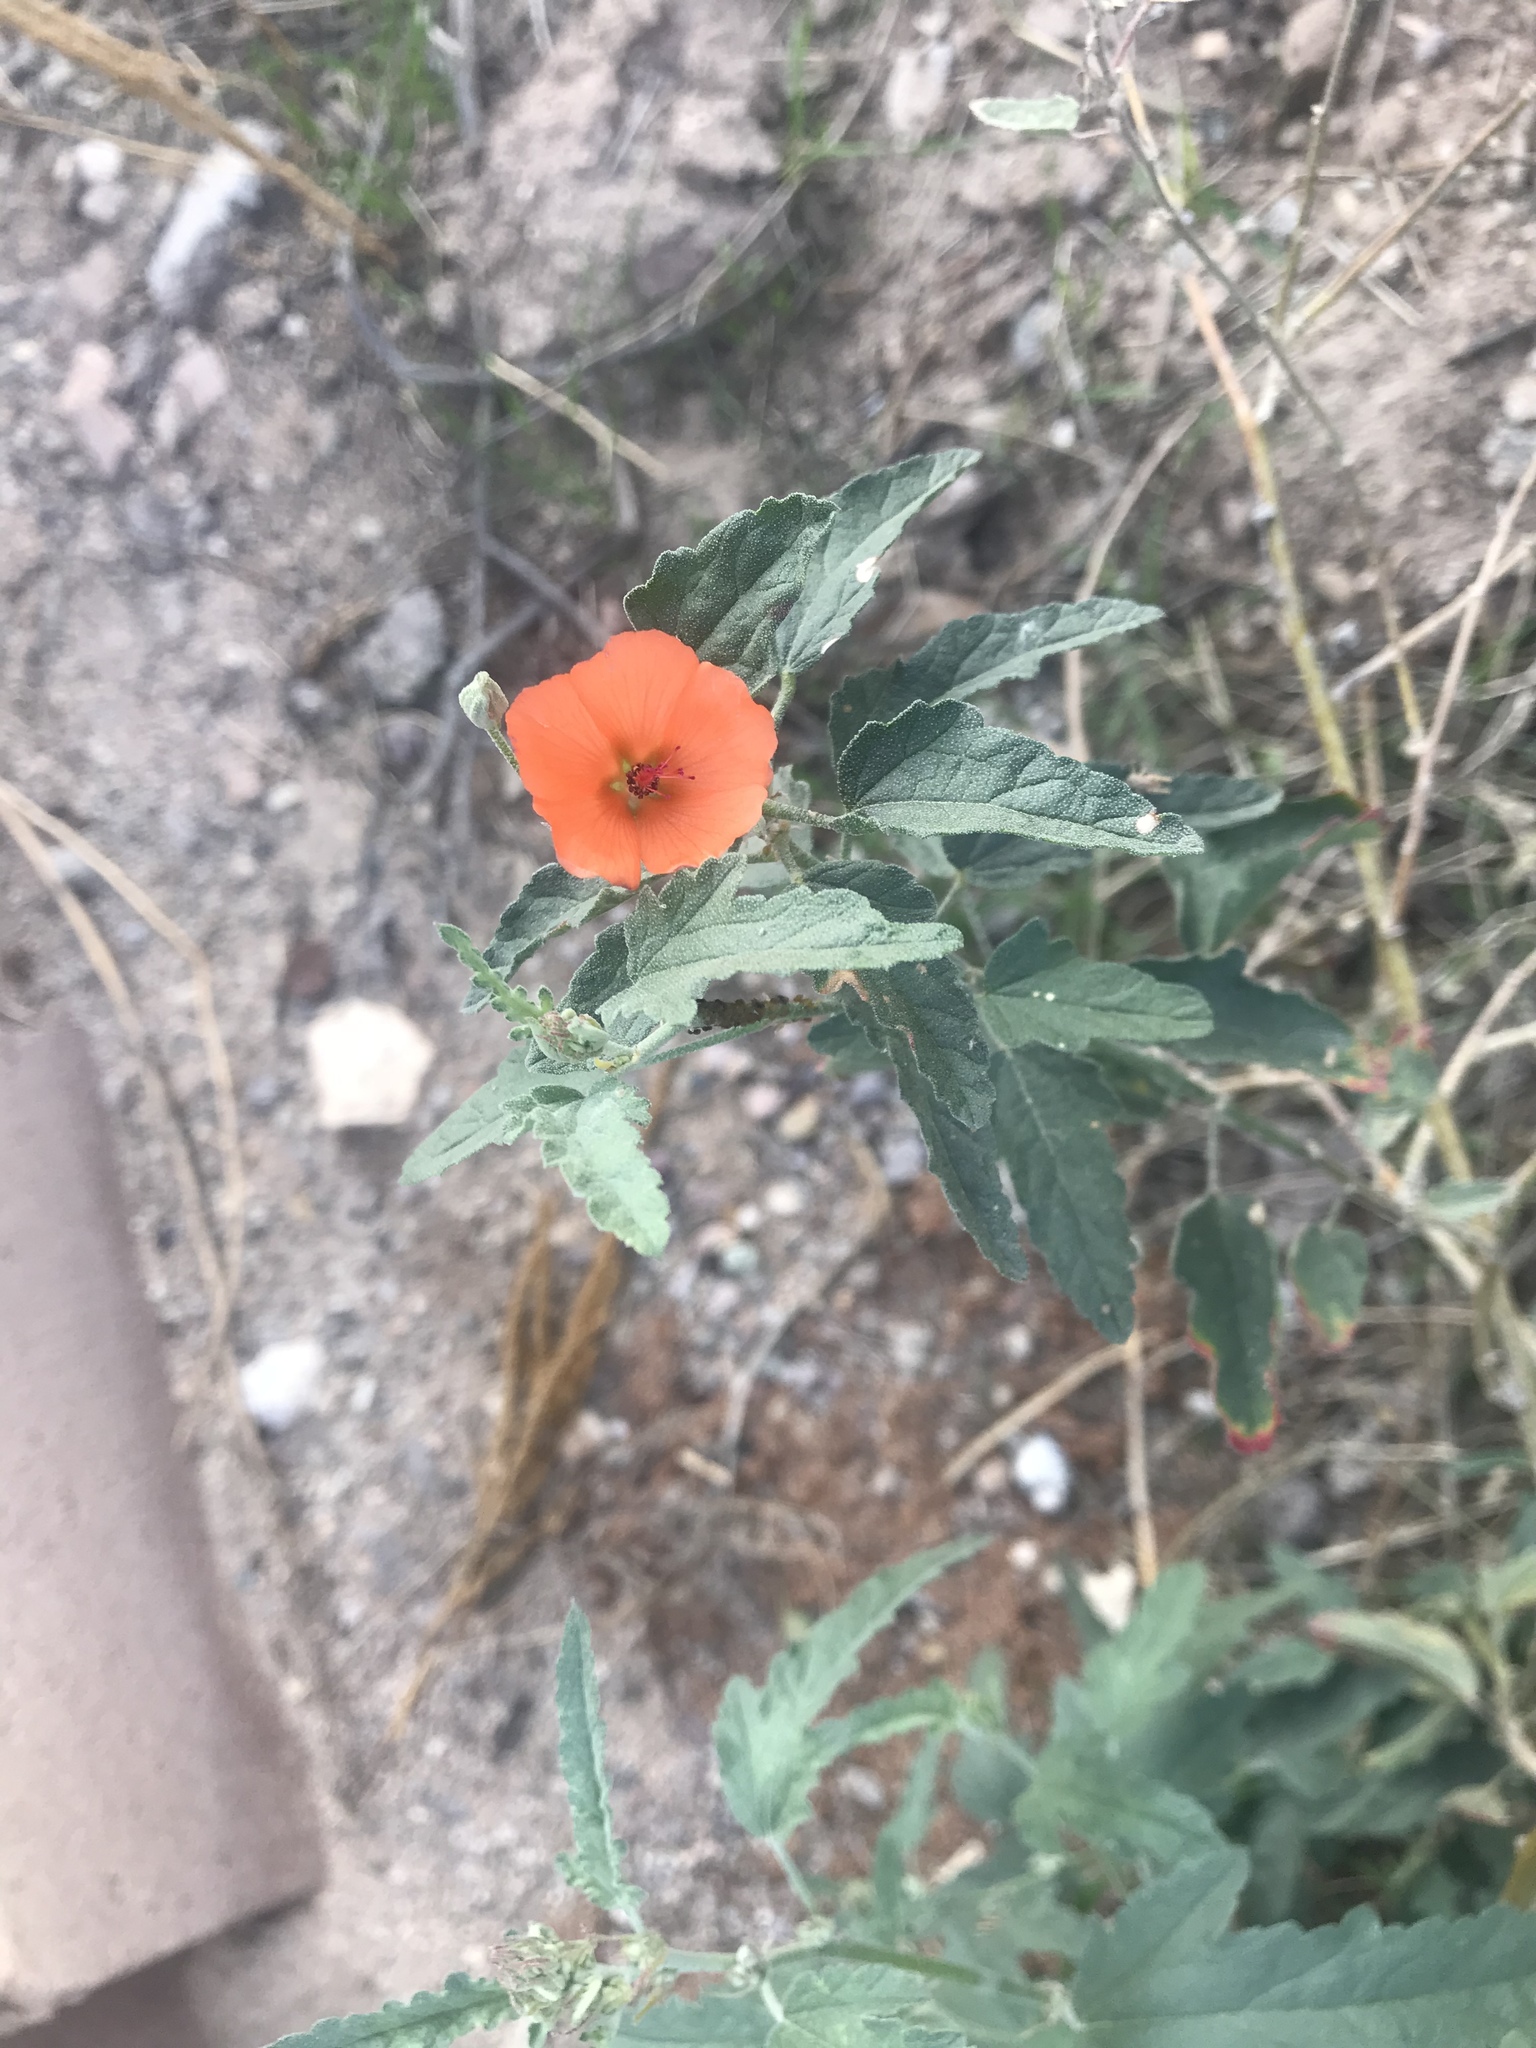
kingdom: Plantae
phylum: Tracheophyta
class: Magnoliopsida
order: Malvales
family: Malvaceae
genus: Sphaeralcea
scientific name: Sphaeralcea angustifolia
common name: Copper globe-mallow
